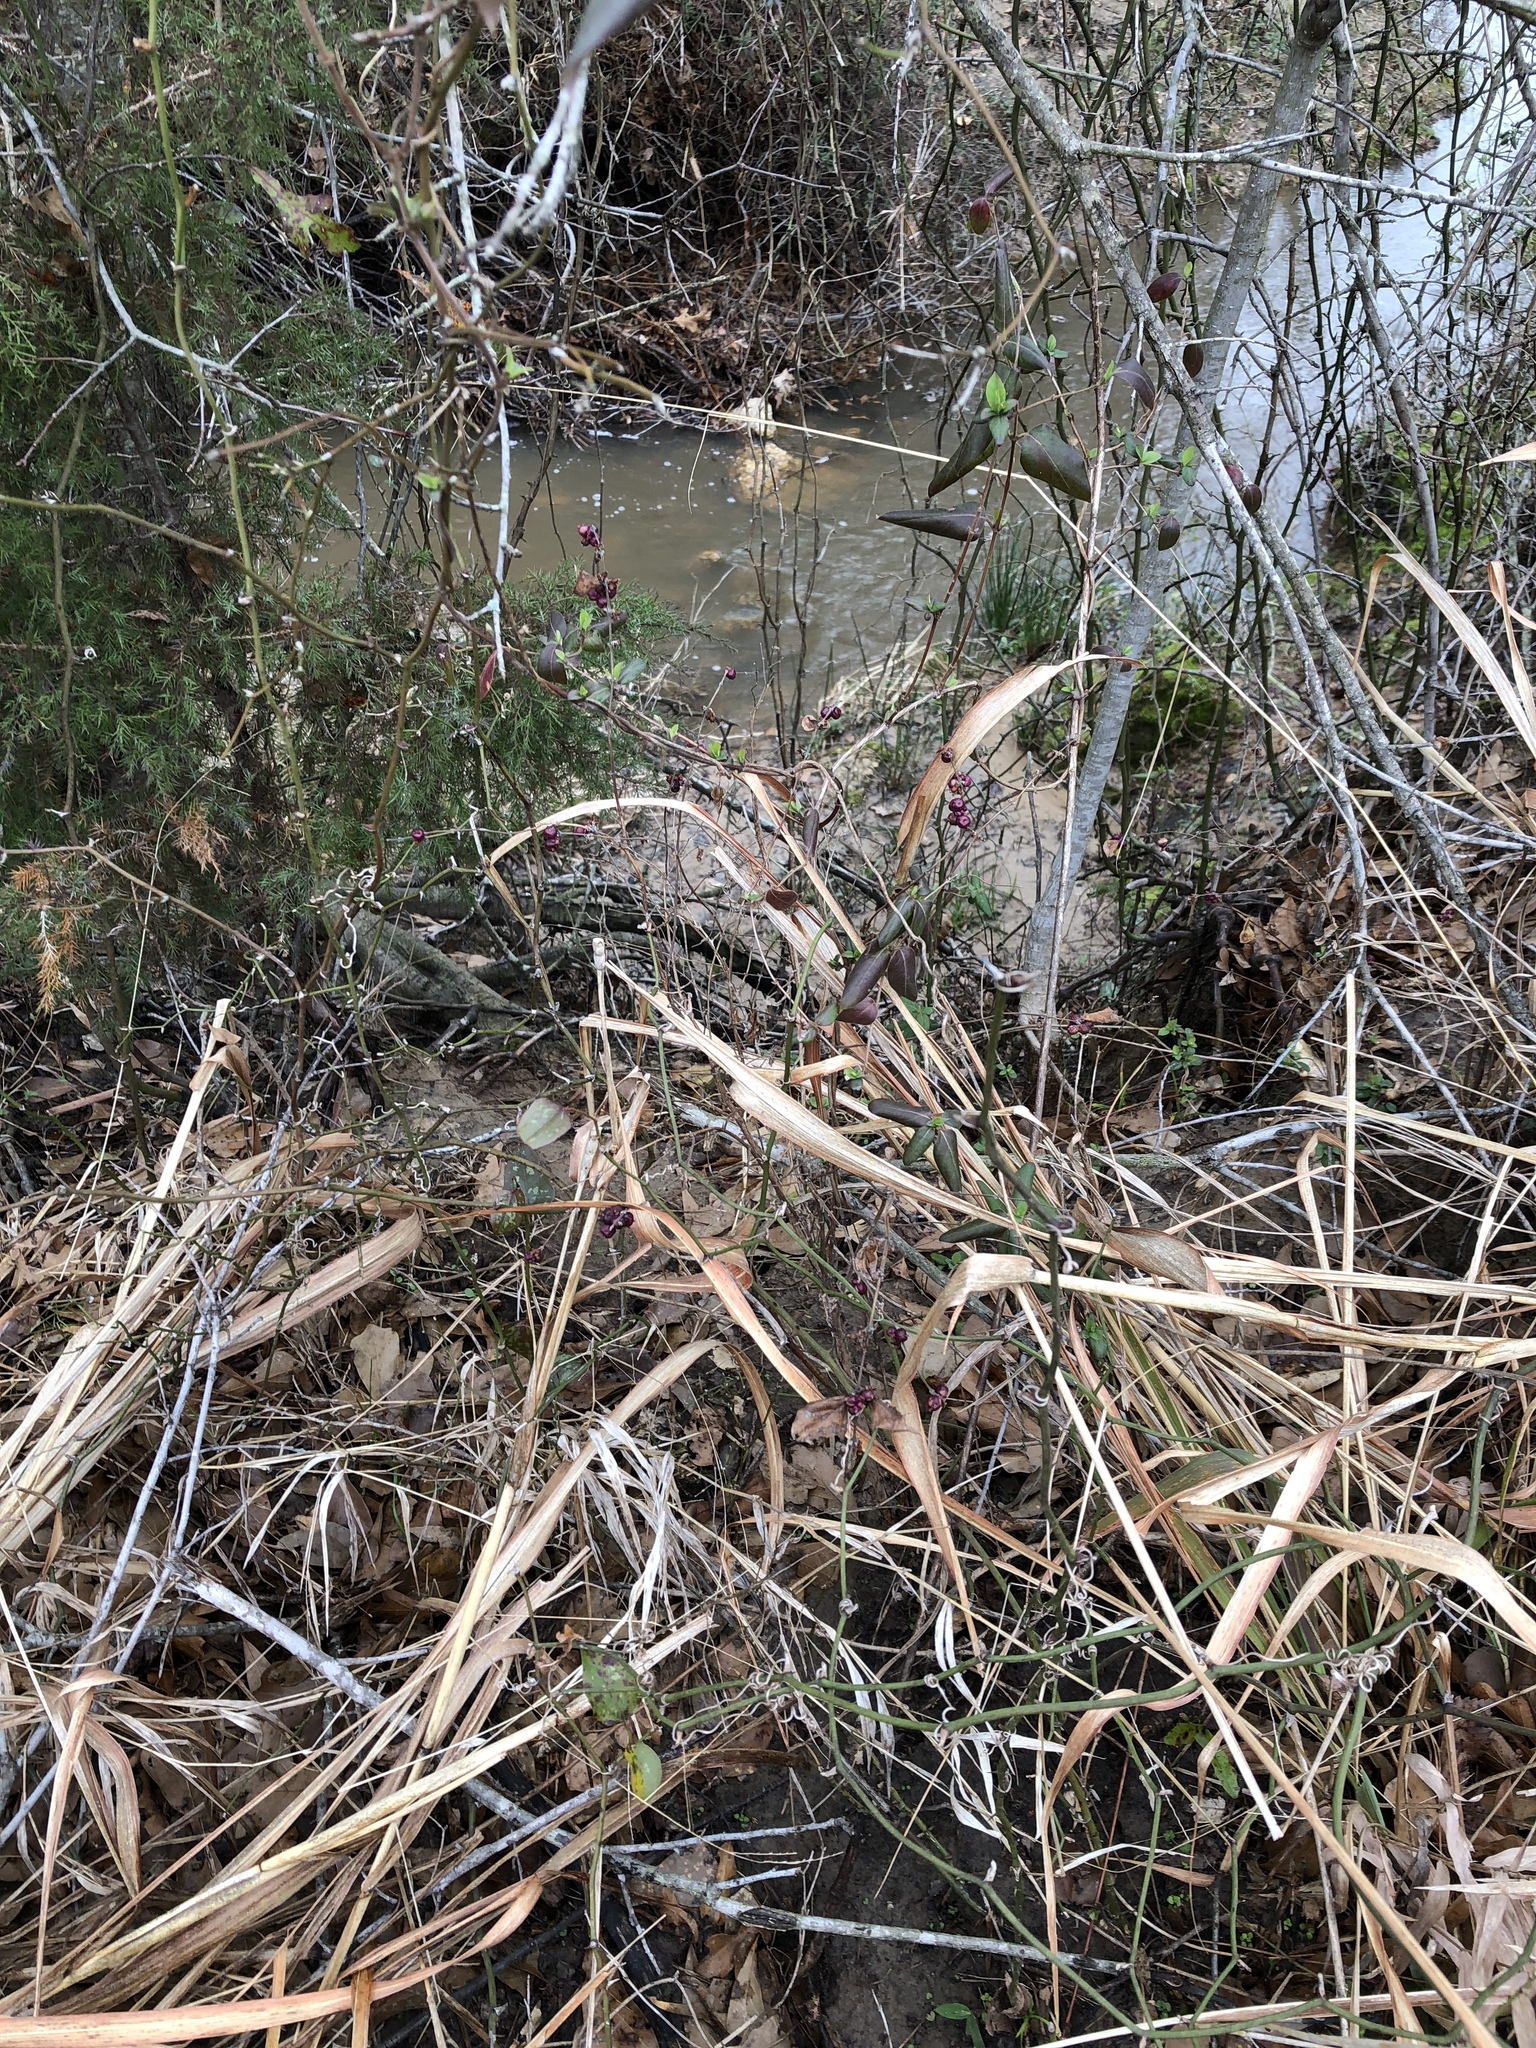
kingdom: Plantae
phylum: Tracheophyta
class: Magnoliopsida
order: Dipsacales
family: Caprifoliaceae
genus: Symphoricarpos
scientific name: Symphoricarpos orbiculatus
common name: Coralberry
